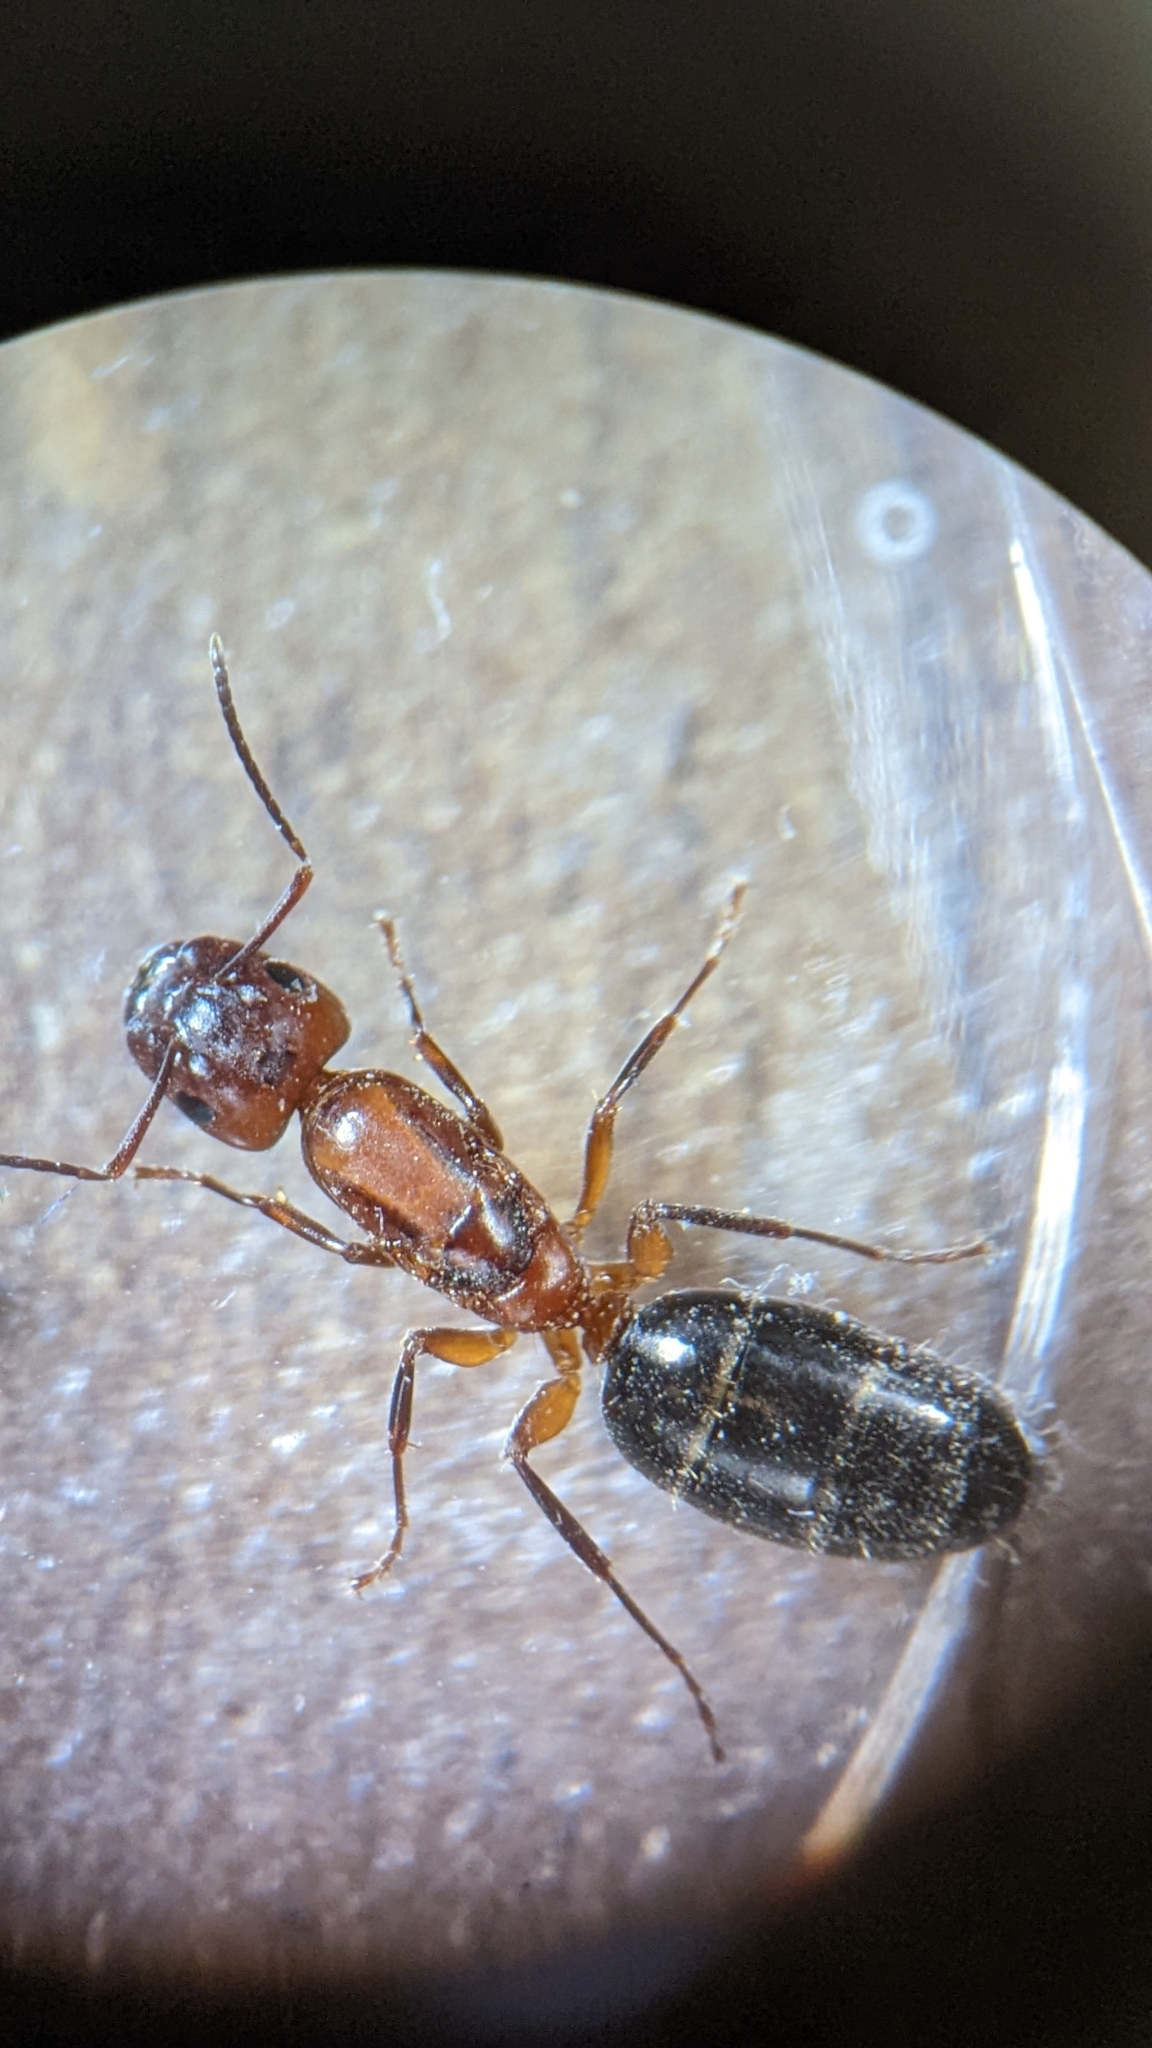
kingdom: Animalia
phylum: Arthropoda
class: Insecta
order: Hymenoptera
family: Formicidae
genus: Camponotus
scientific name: Camponotus decipiens
